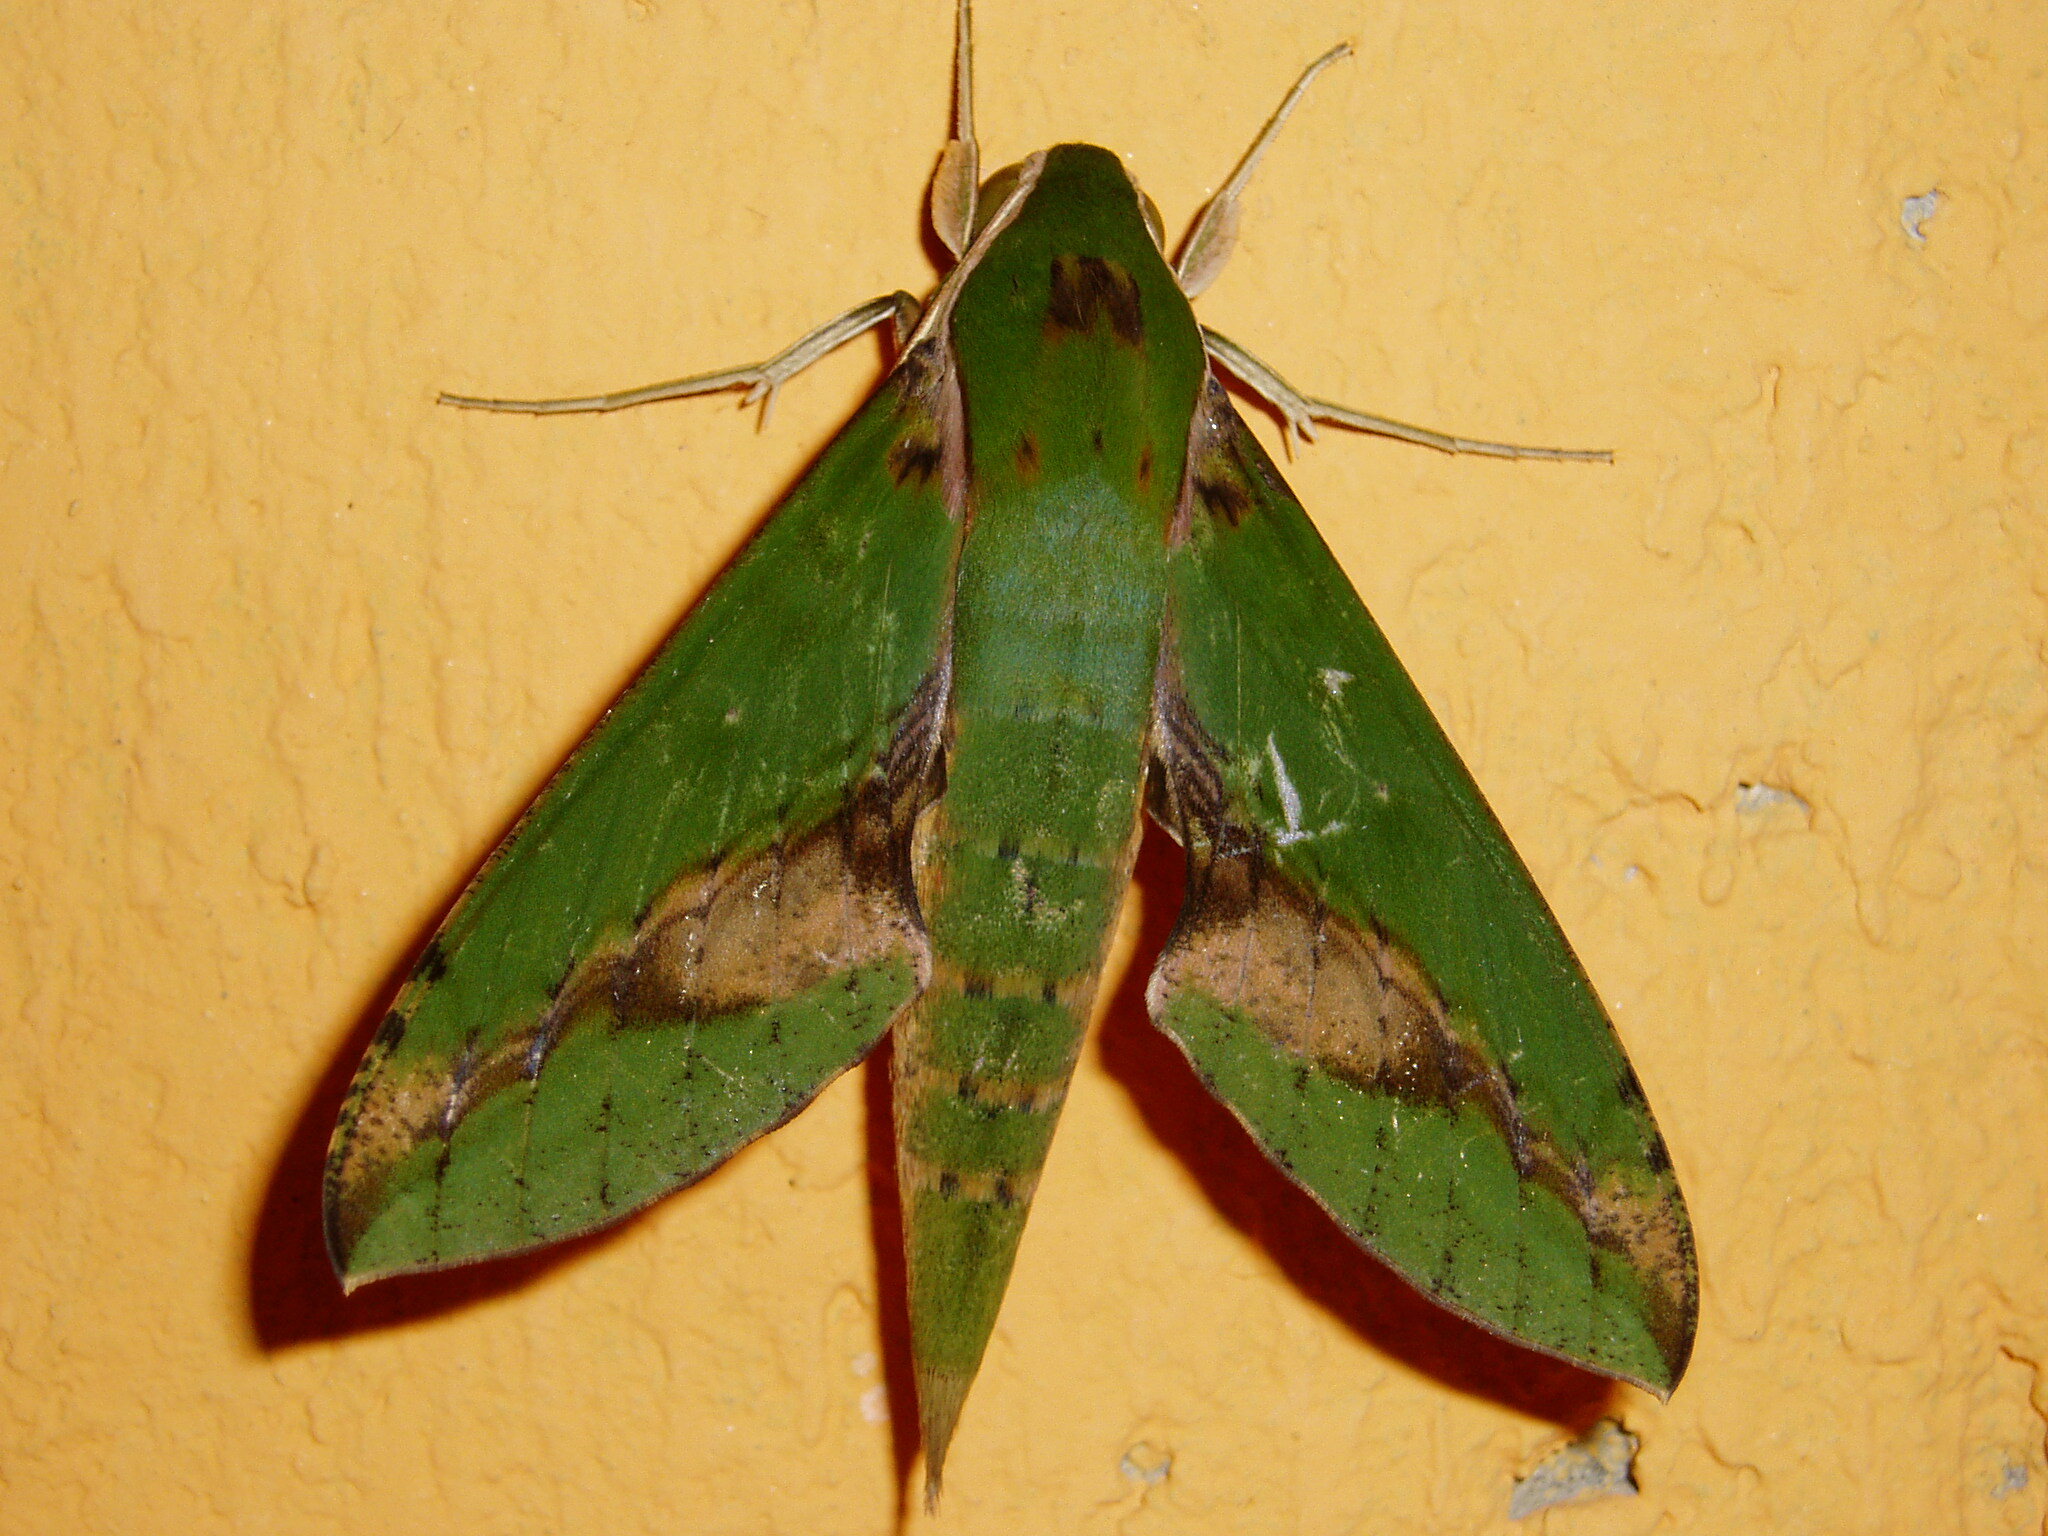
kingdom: Animalia
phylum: Arthropoda
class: Insecta
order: Lepidoptera
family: Sphingidae
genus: Xylophanes
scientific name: Xylophanes chiron
